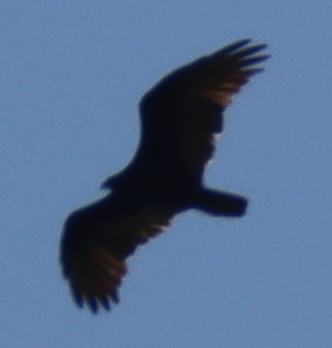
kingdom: Animalia
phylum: Chordata
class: Aves
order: Accipitriformes
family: Cathartidae
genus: Cathartes
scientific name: Cathartes aura
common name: Turkey vulture
